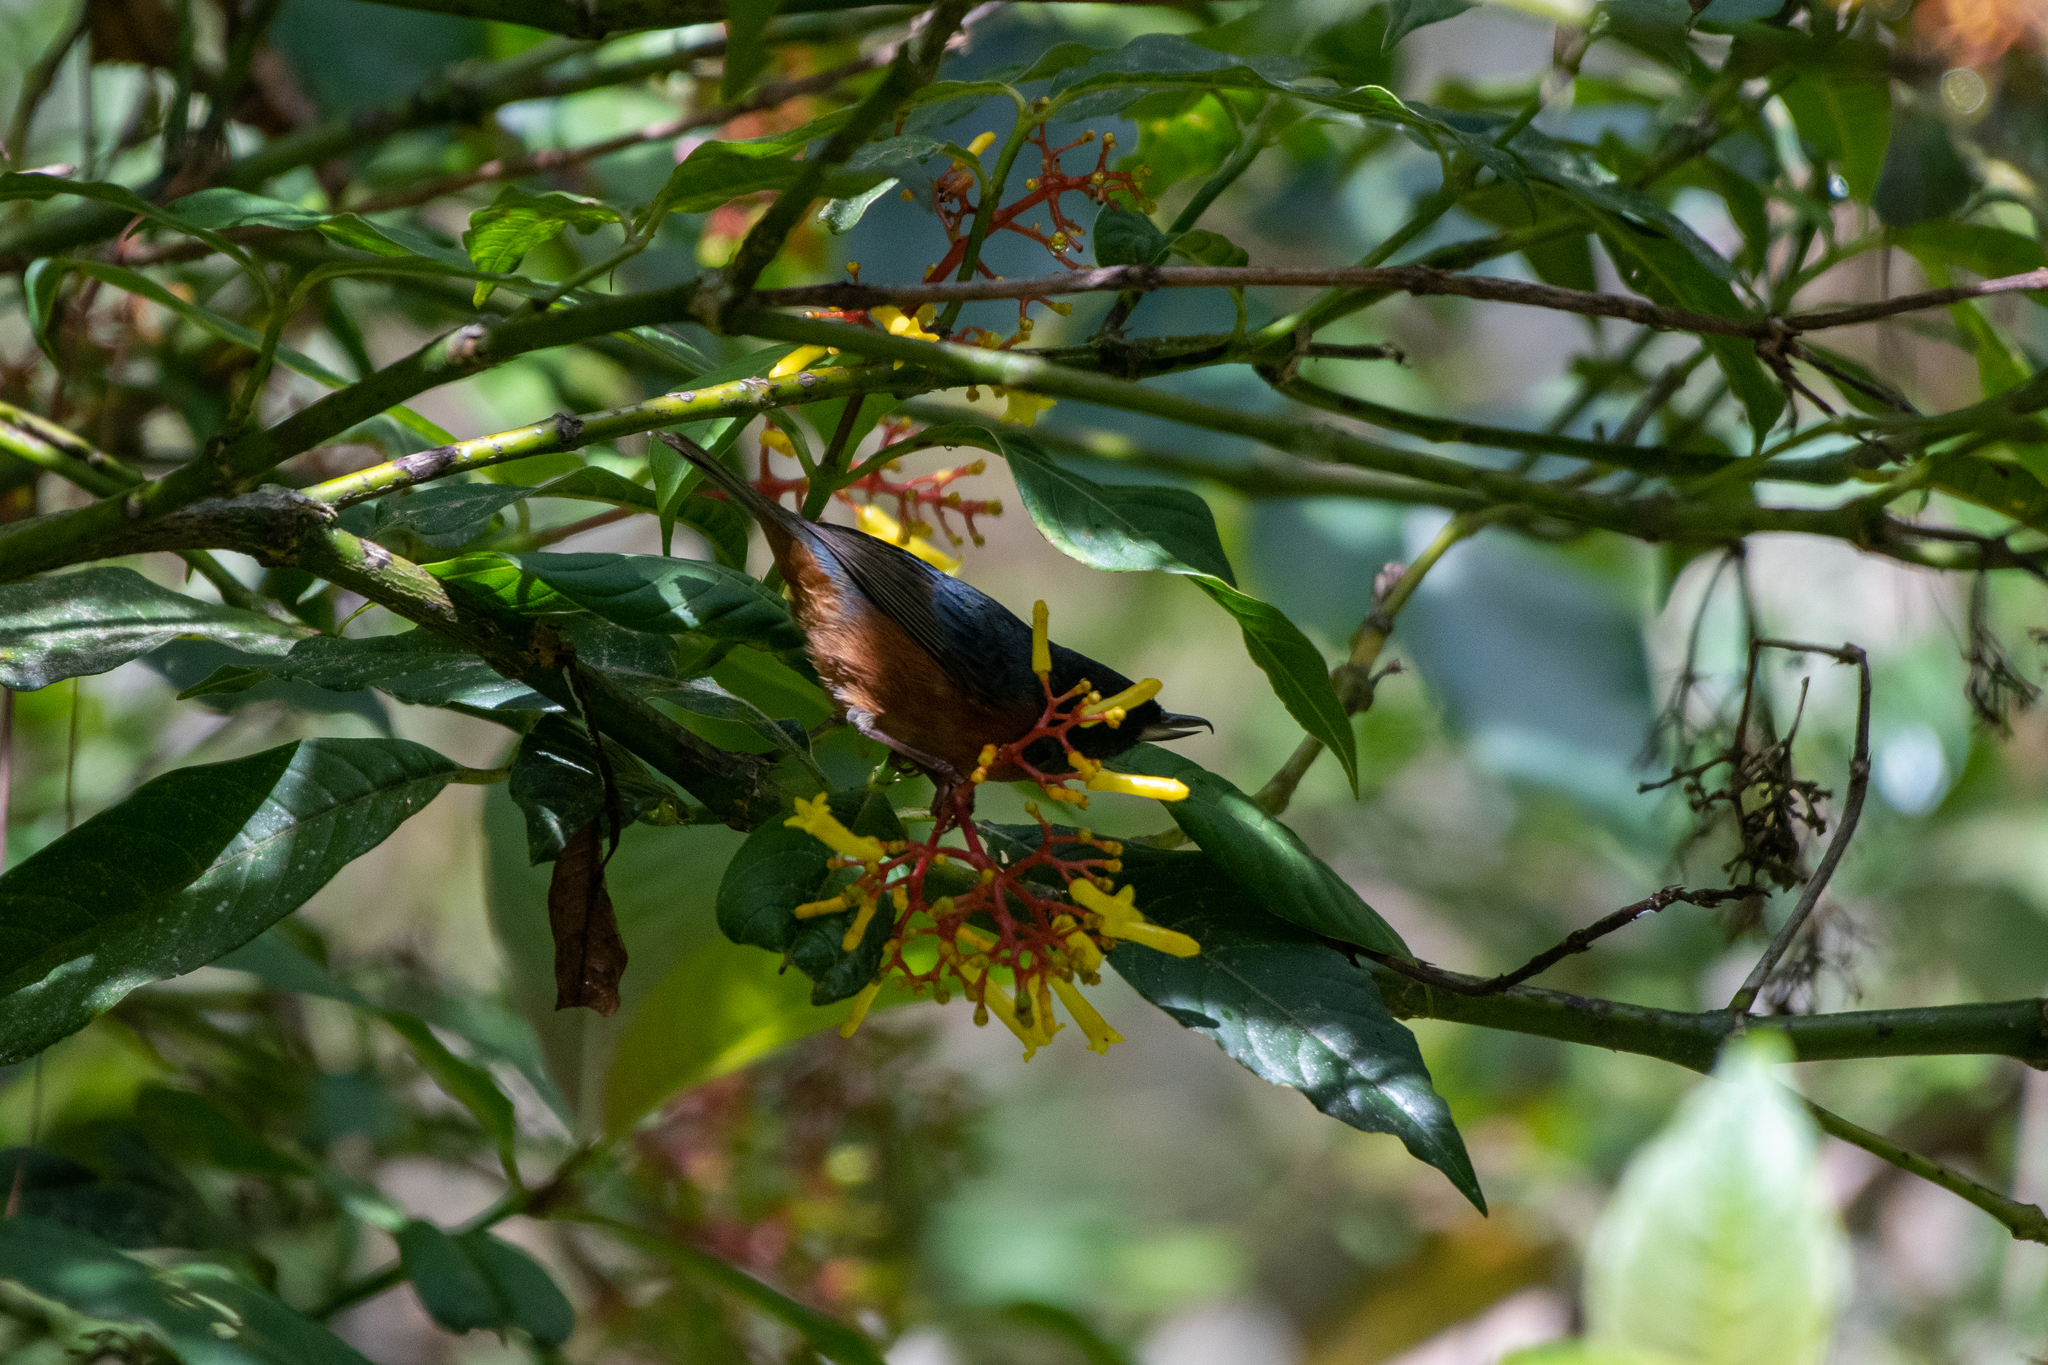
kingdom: Animalia
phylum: Chordata
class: Aves
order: Passeriformes
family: Thraupidae
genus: Diglossa
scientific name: Diglossa baritula
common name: Cinnamon-bellied flowerpiercer
